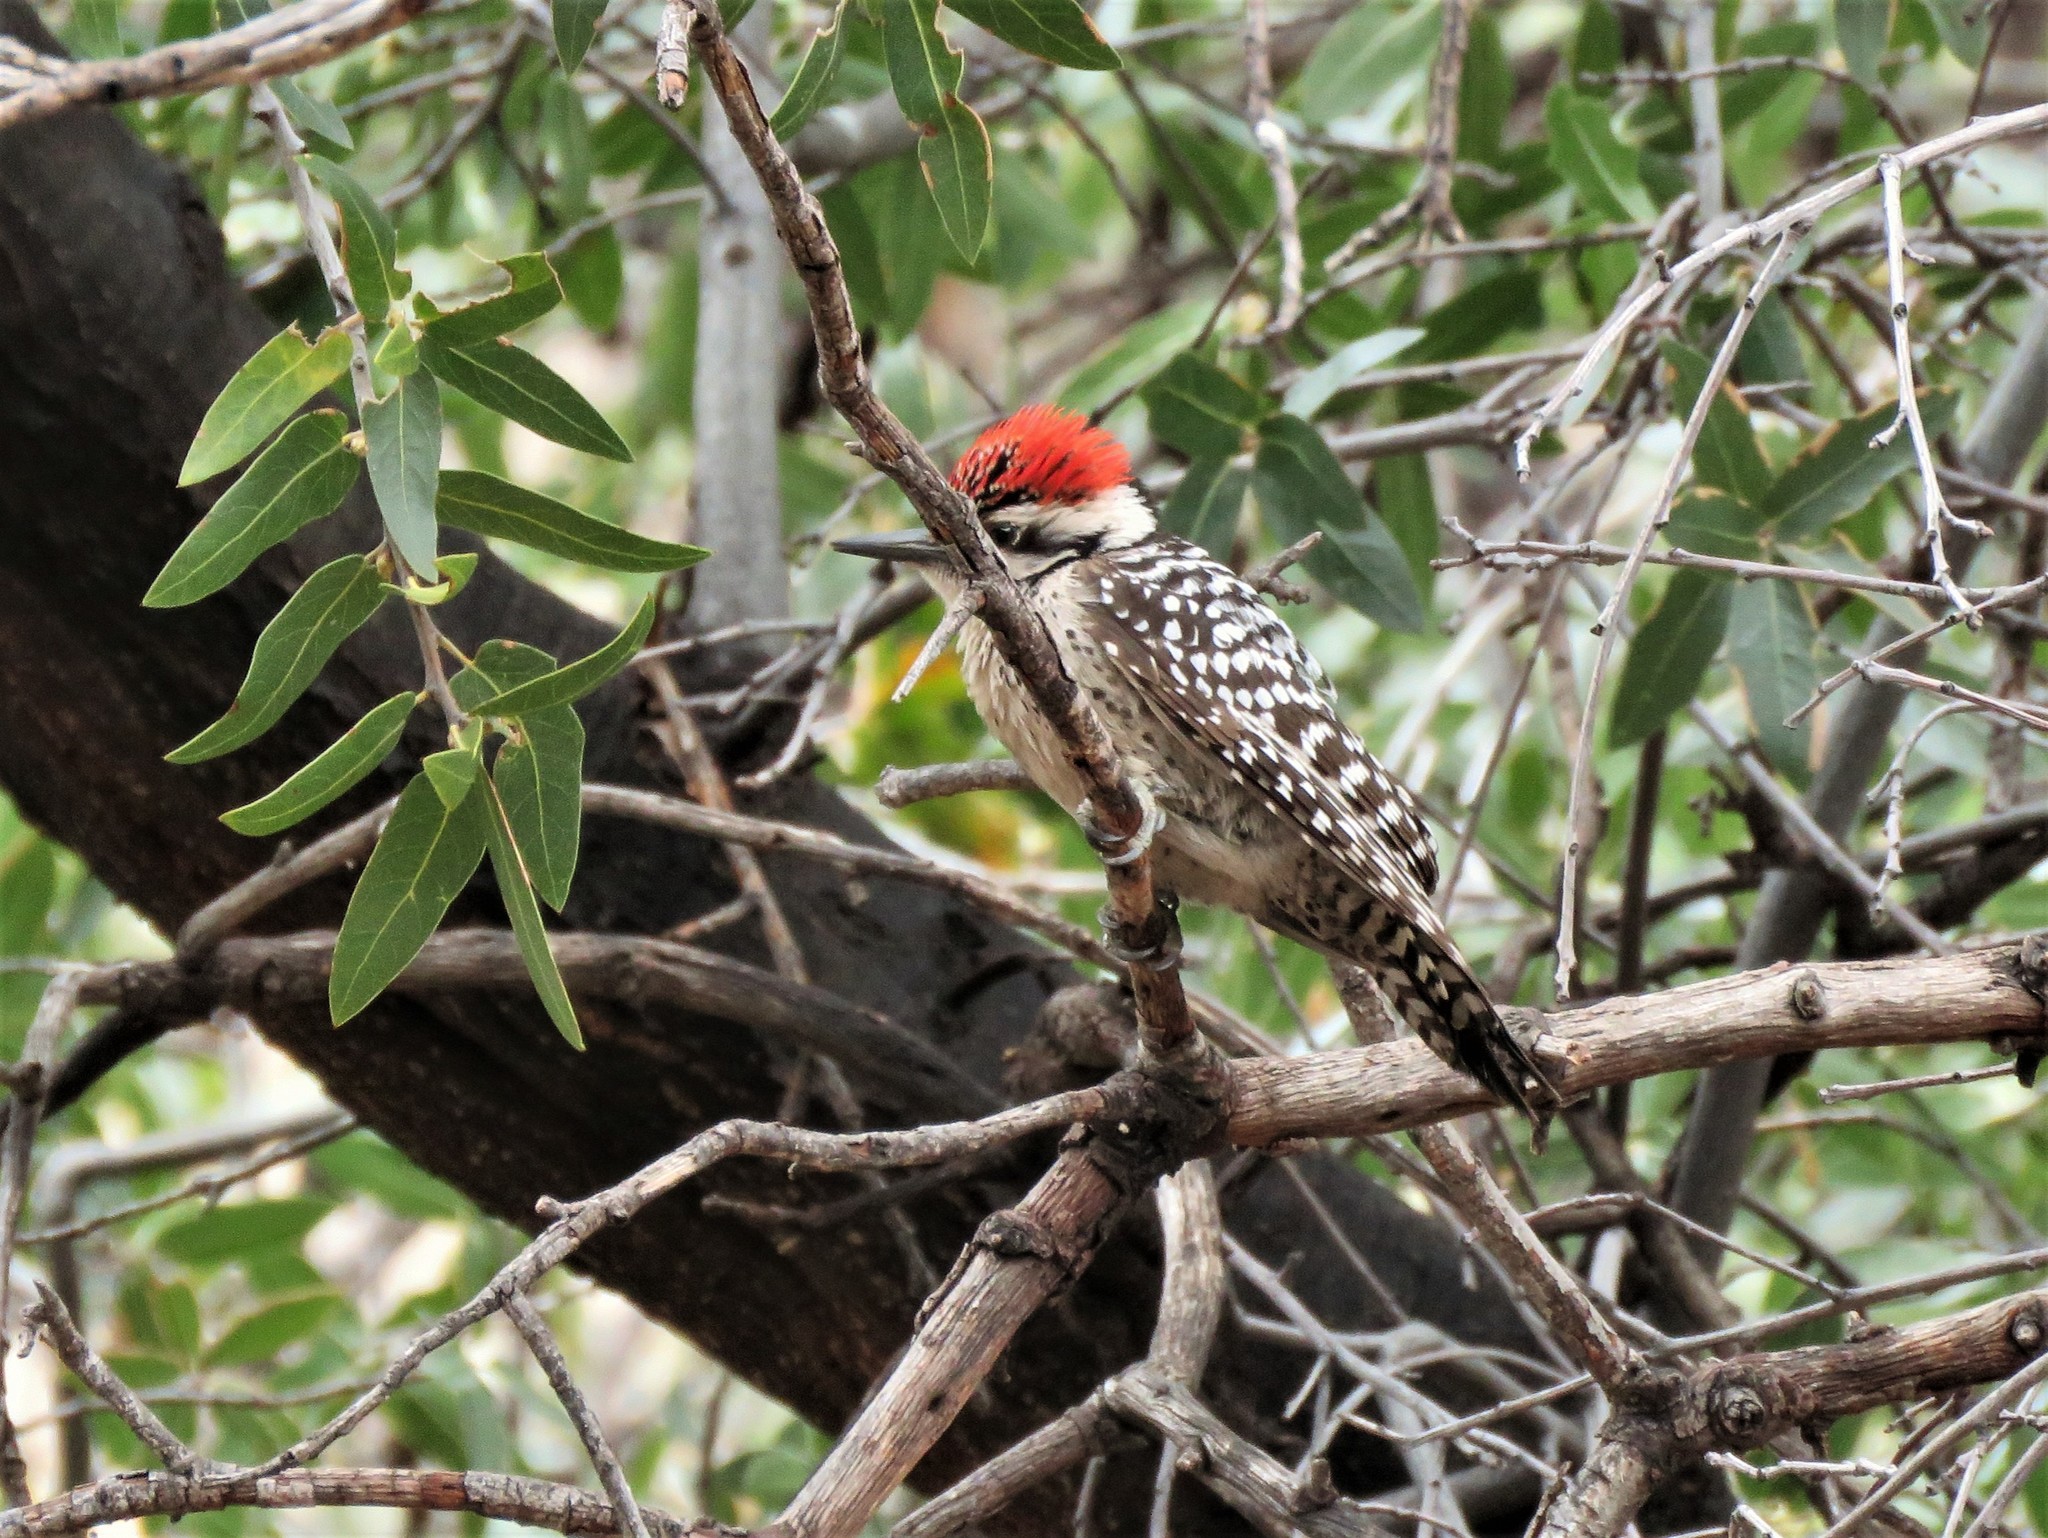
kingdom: Animalia
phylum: Chordata
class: Aves
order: Piciformes
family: Picidae
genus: Dryobates
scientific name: Dryobates scalaris
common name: Ladder-backed woodpecker
